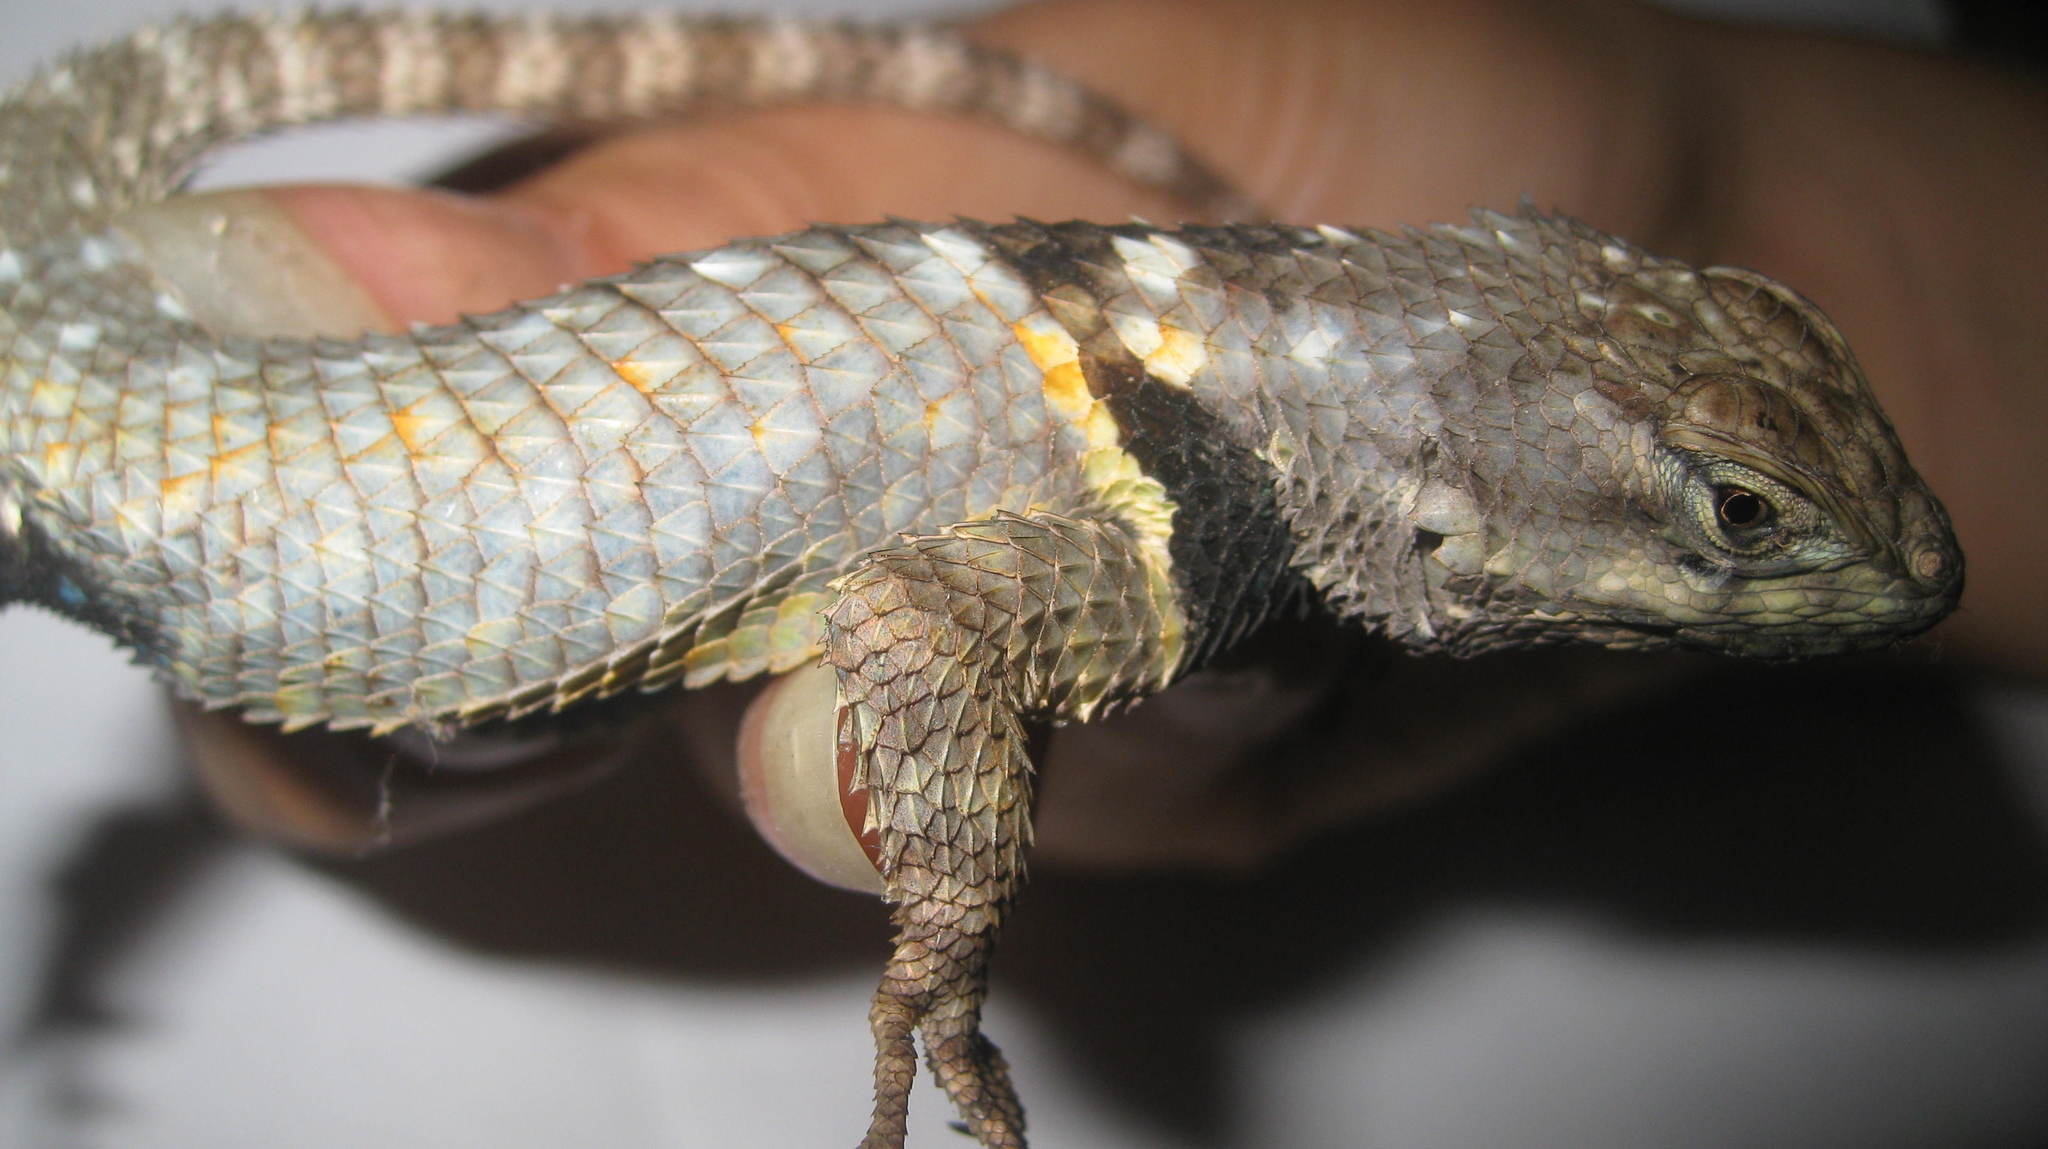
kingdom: Animalia
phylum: Chordata
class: Squamata
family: Phrynosomatidae
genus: Sceloporus
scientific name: Sceloporus torquatus
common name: Central plateau torquate lizard [melanogaster]
